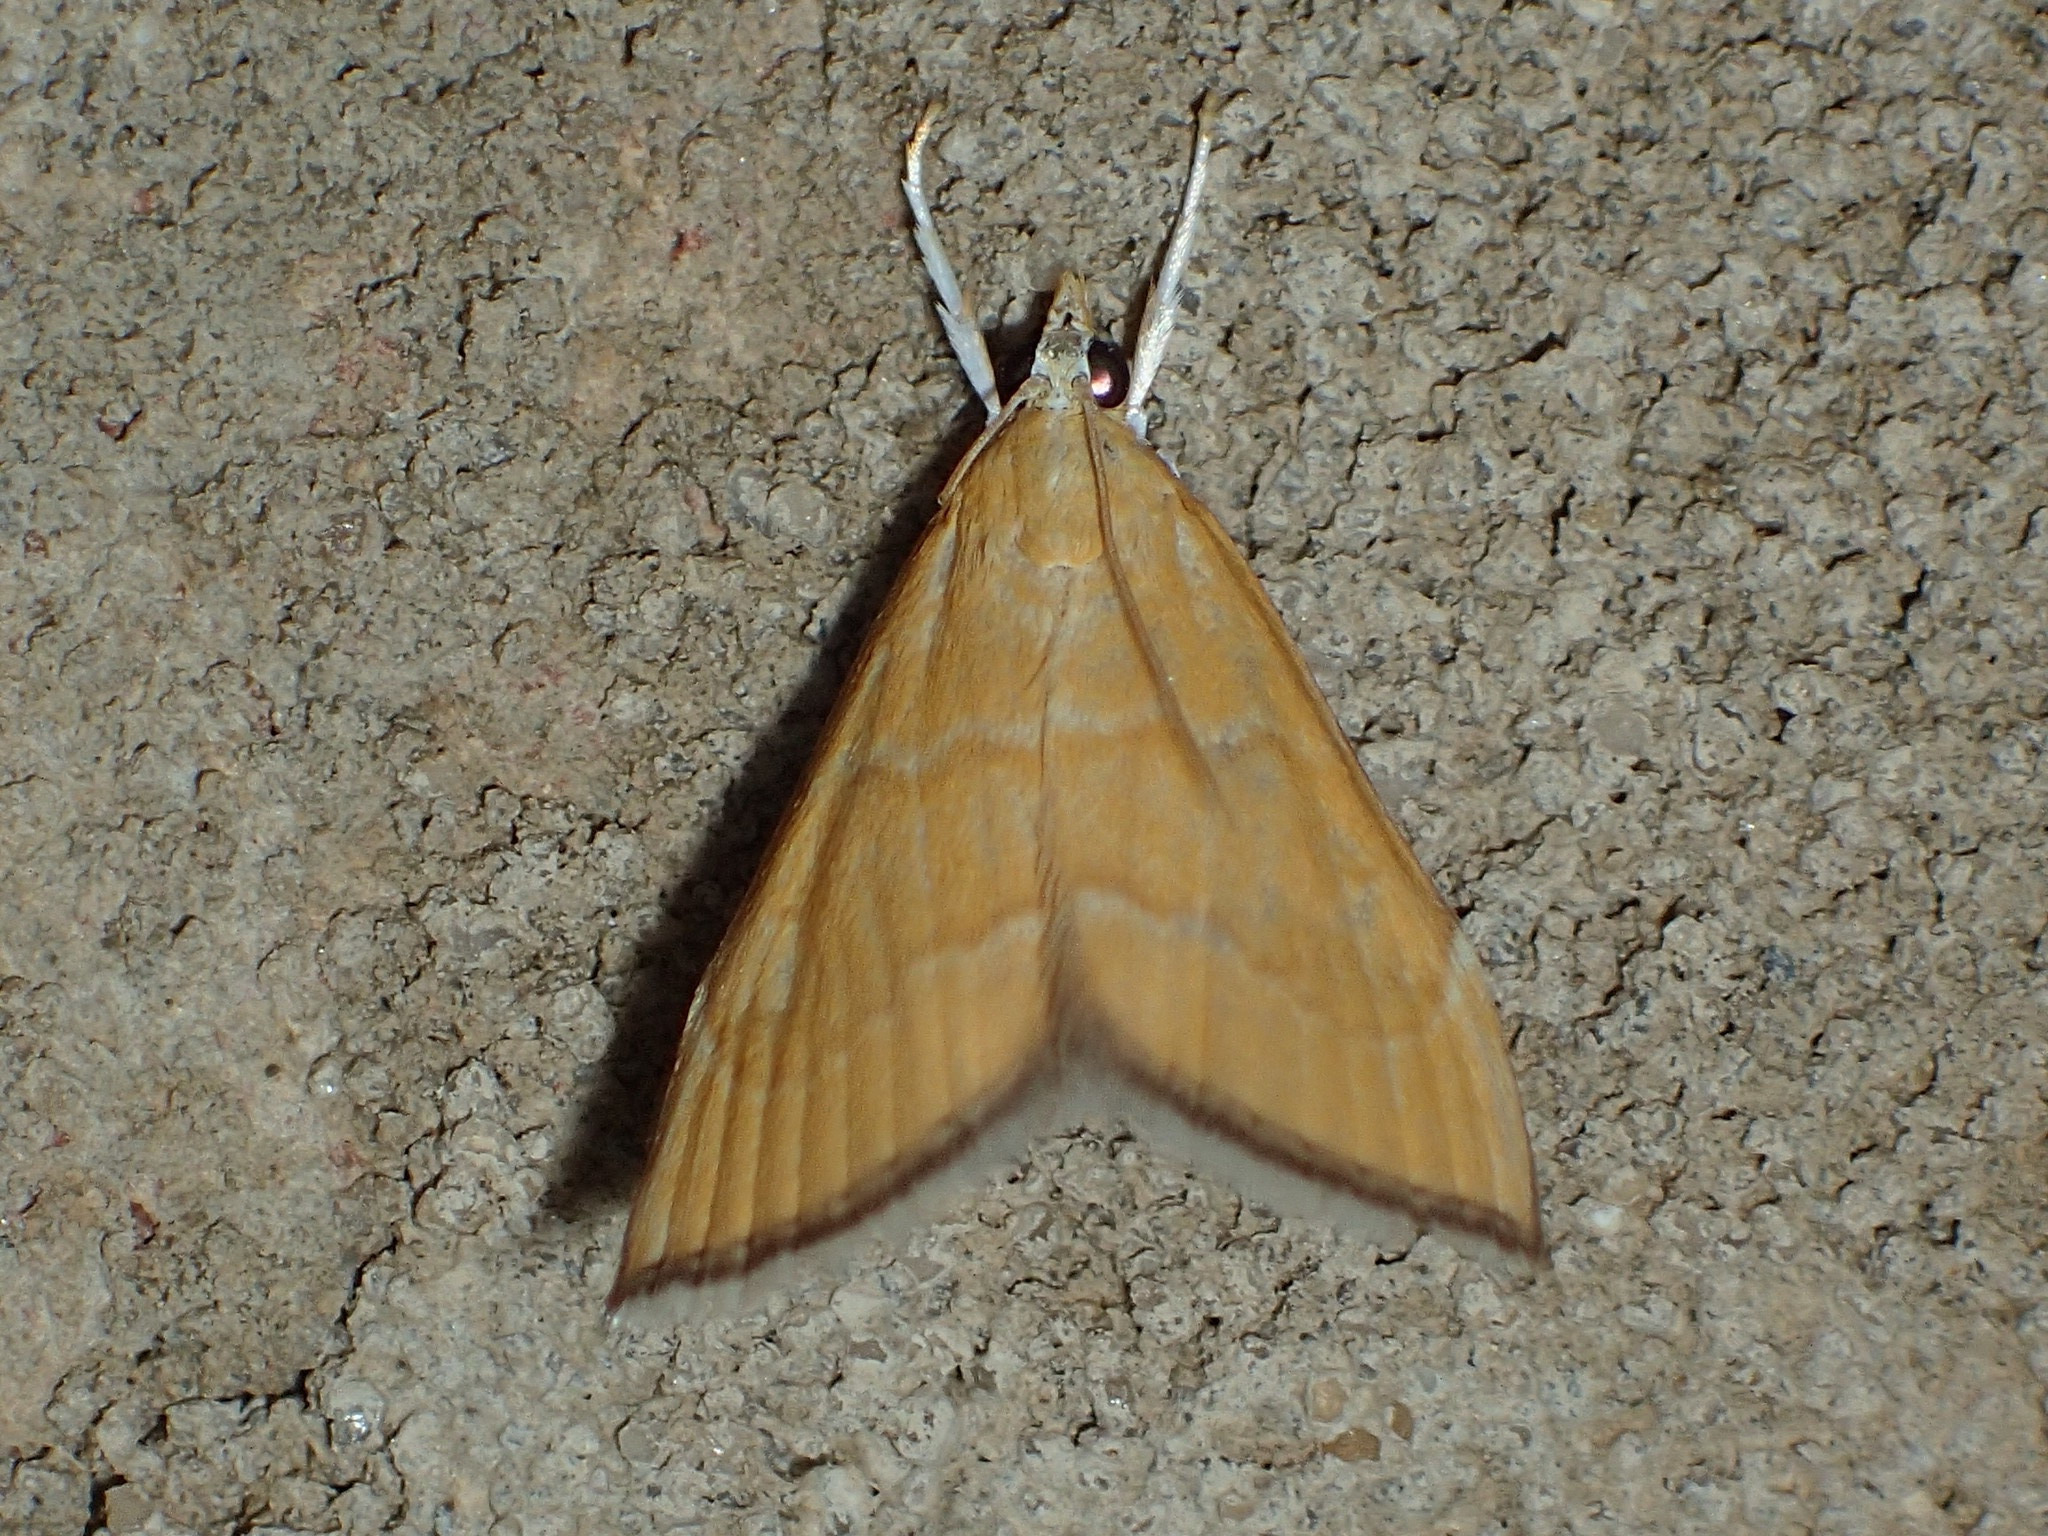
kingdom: Animalia
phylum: Arthropoda
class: Insecta
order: Lepidoptera
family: Crambidae
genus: Glaphyria
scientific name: Glaphyria invisalis
